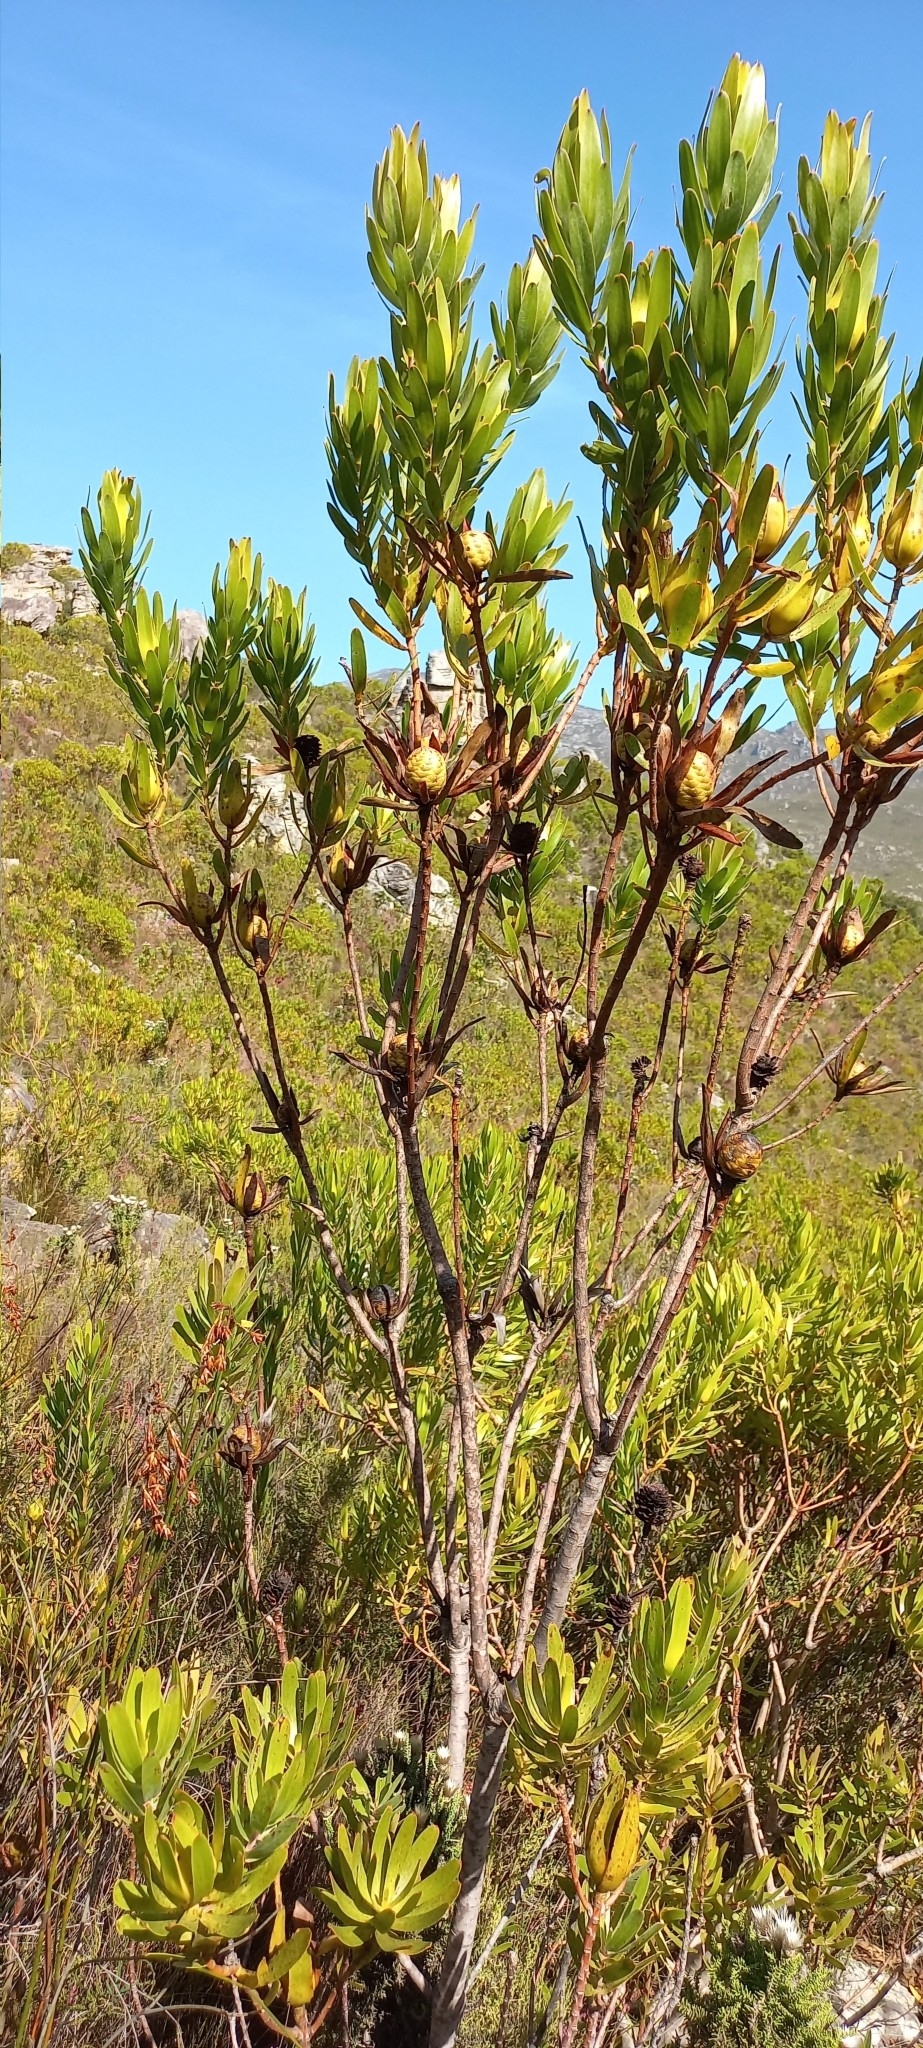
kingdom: Plantae
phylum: Tracheophyta
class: Magnoliopsida
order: Proteales
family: Proteaceae
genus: Leucadendron
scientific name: Leucadendron laureolum
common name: Golden sunshinebush
